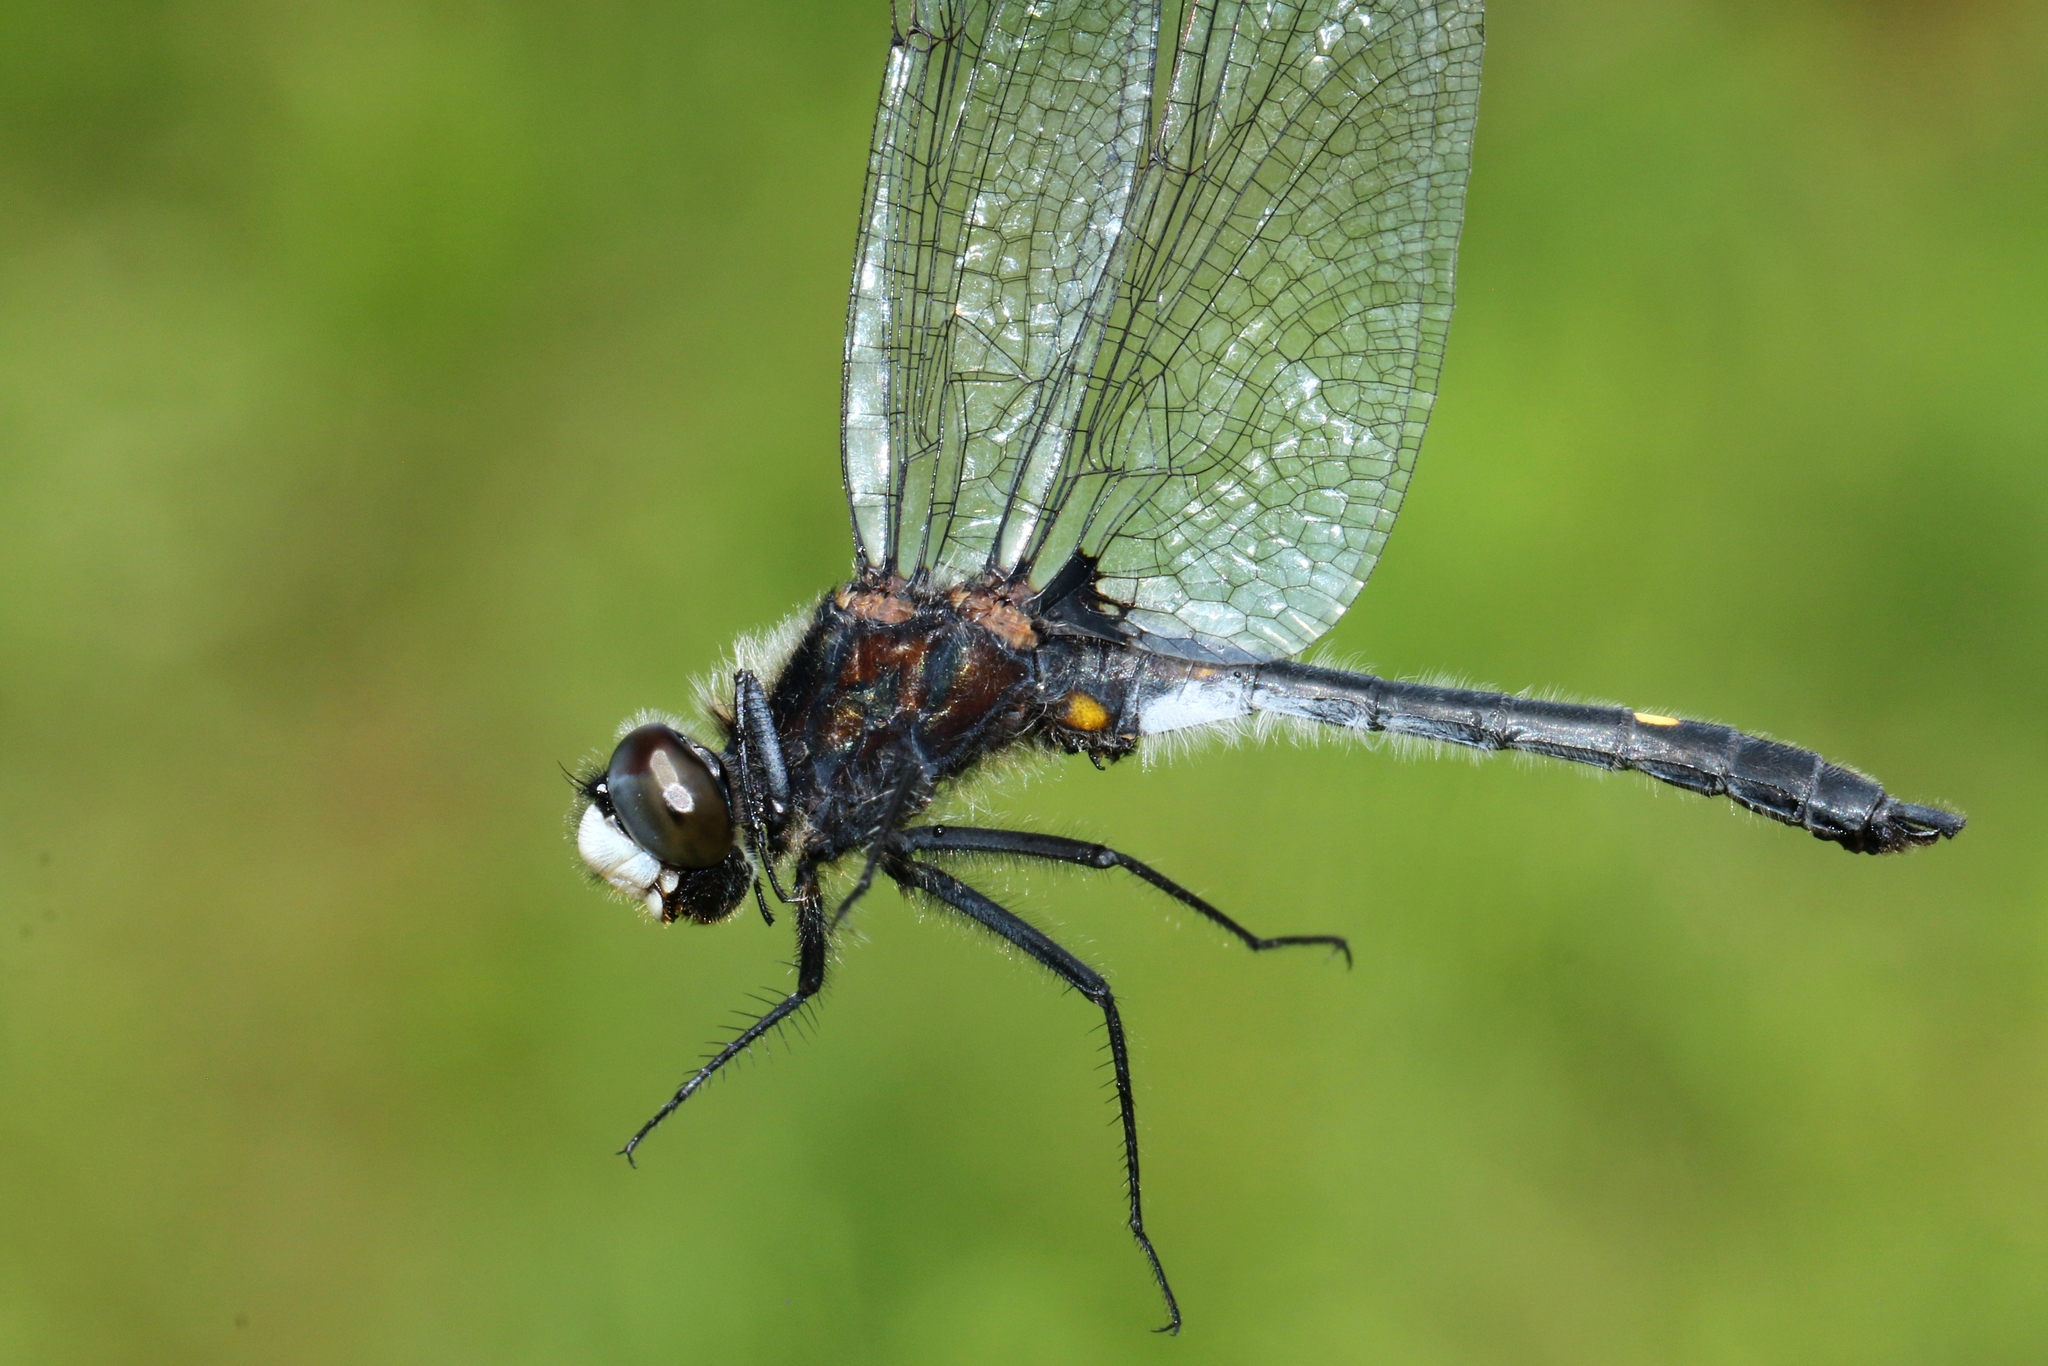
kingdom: Animalia
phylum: Arthropoda
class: Insecta
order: Odonata
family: Libellulidae
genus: Leucorrhinia
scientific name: Leucorrhinia intacta
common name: Dot-tailed whiteface
